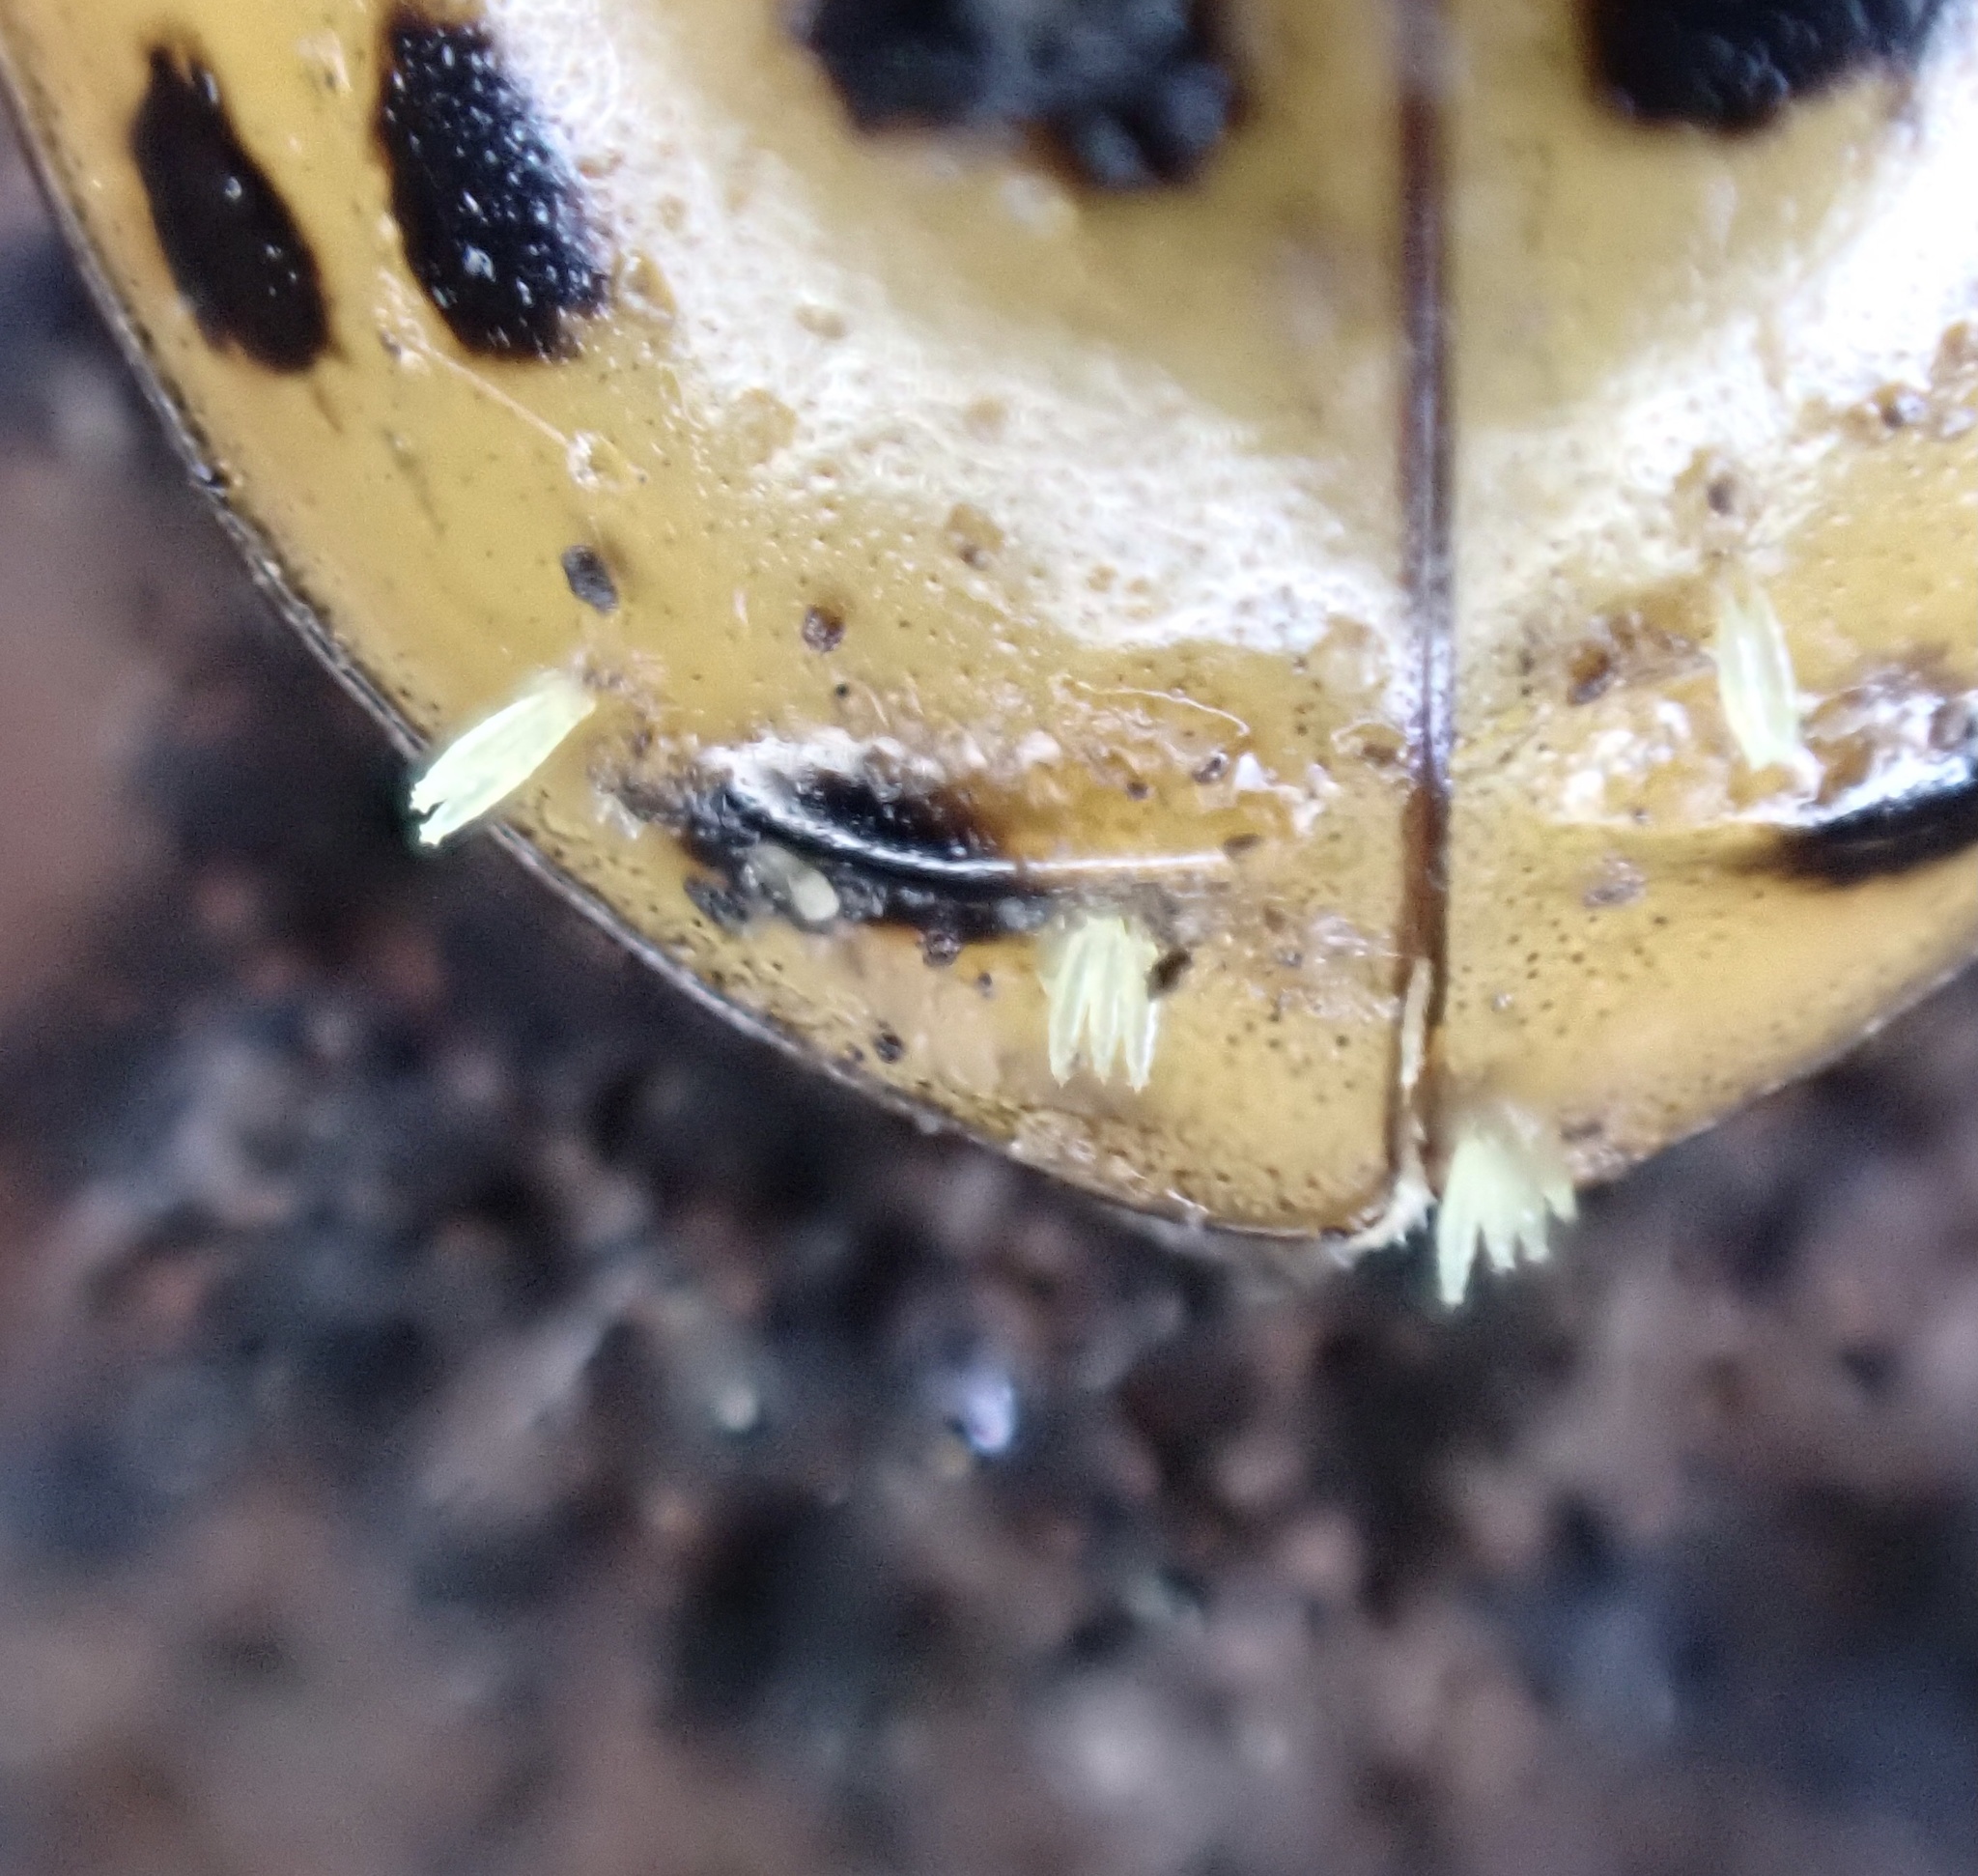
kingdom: Fungi
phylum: Ascomycota
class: Laboulbeniomycetes
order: Laboulbeniales
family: Laboulbeniaceae
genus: Hesperomyces
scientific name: Hesperomyces harmoniae
